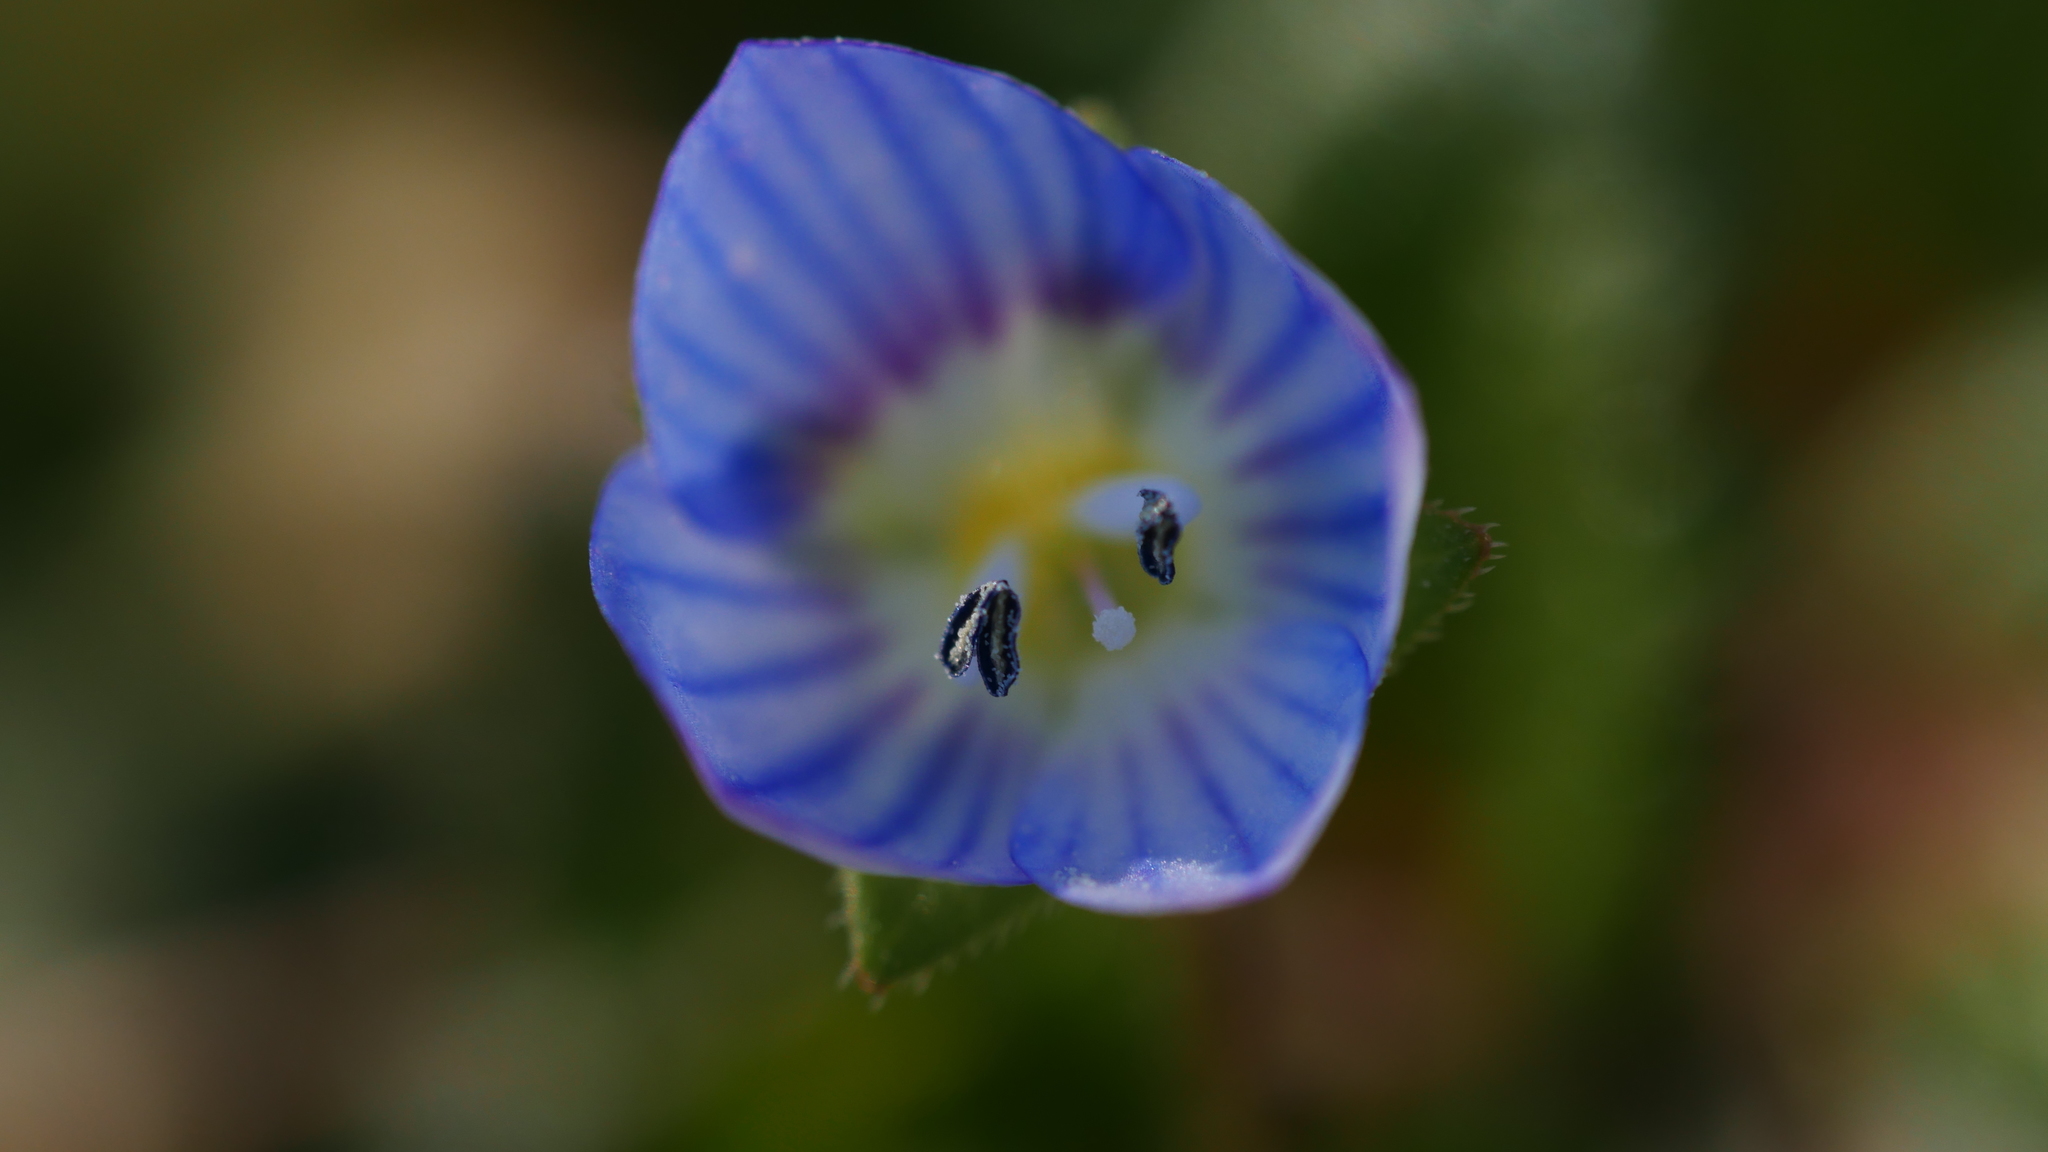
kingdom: Plantae
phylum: Tracheophyta
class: Magnoliopsida
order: Lamiales
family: Plantaginaceae
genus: Veronica
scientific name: Veronica persica
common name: Common field-speedwell
